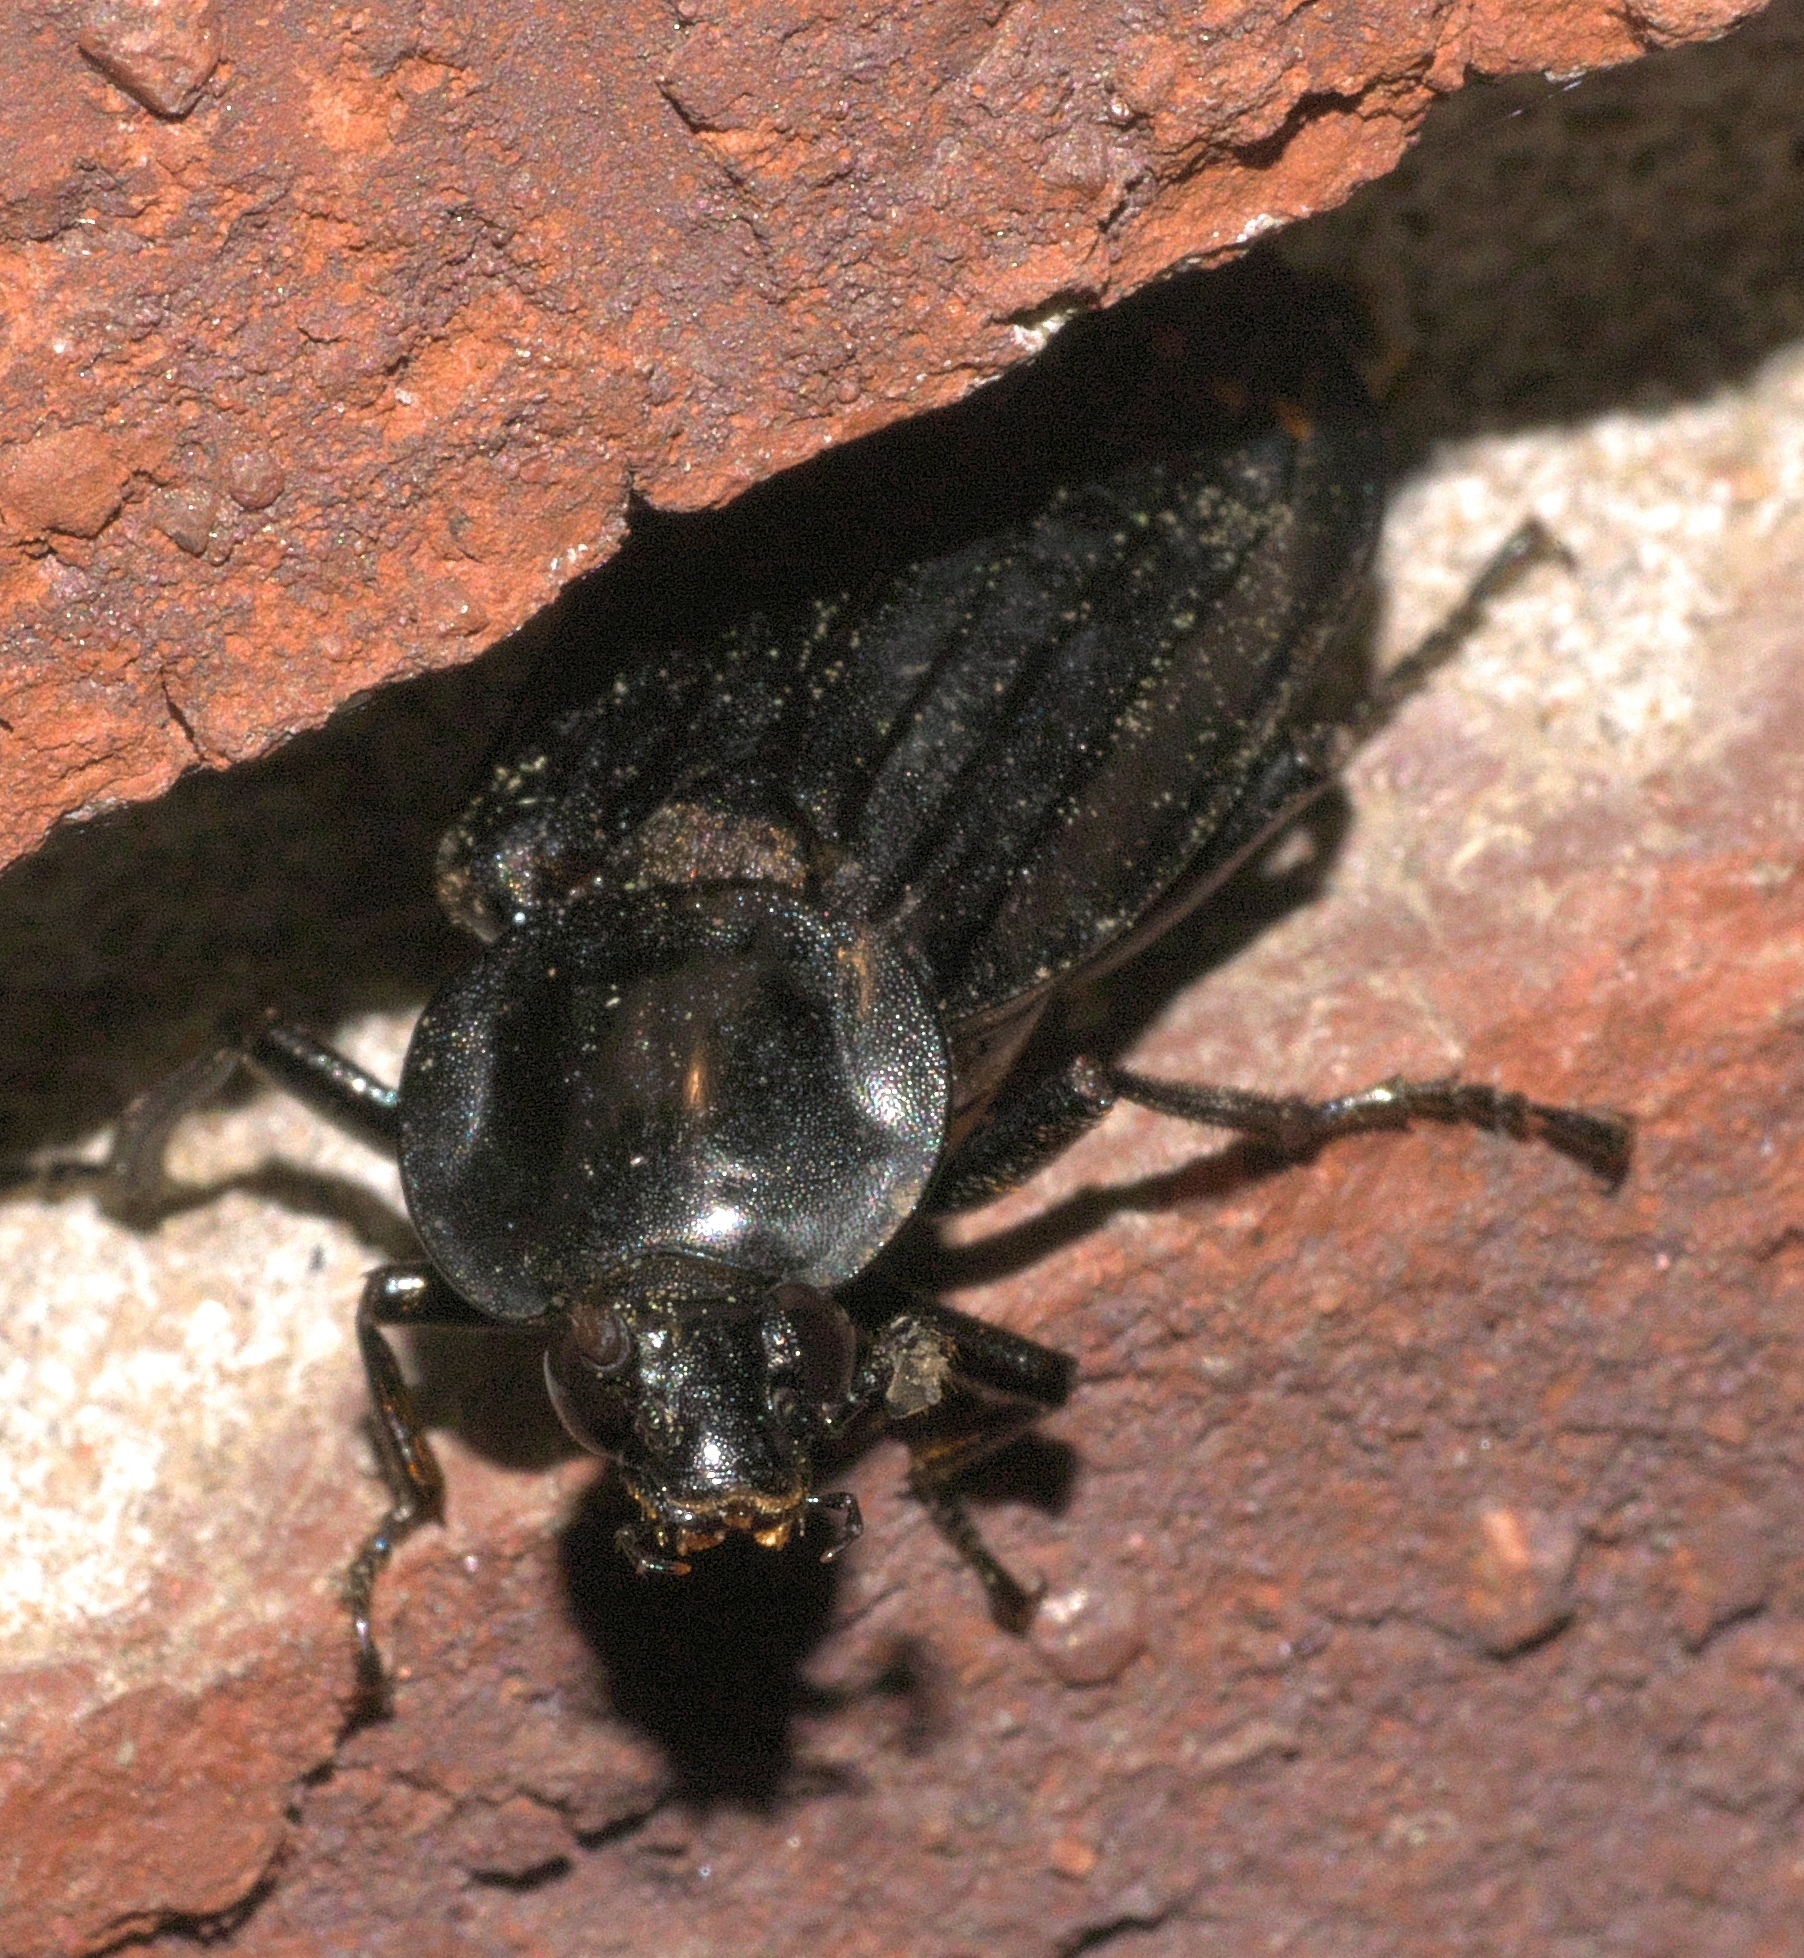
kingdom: Animalia
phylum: Arthropoda
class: Insecta
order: Coleoptera
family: Staphylinidae
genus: Necrodes
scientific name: Necrodes surinamensis
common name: Red-lined carrion beetle
